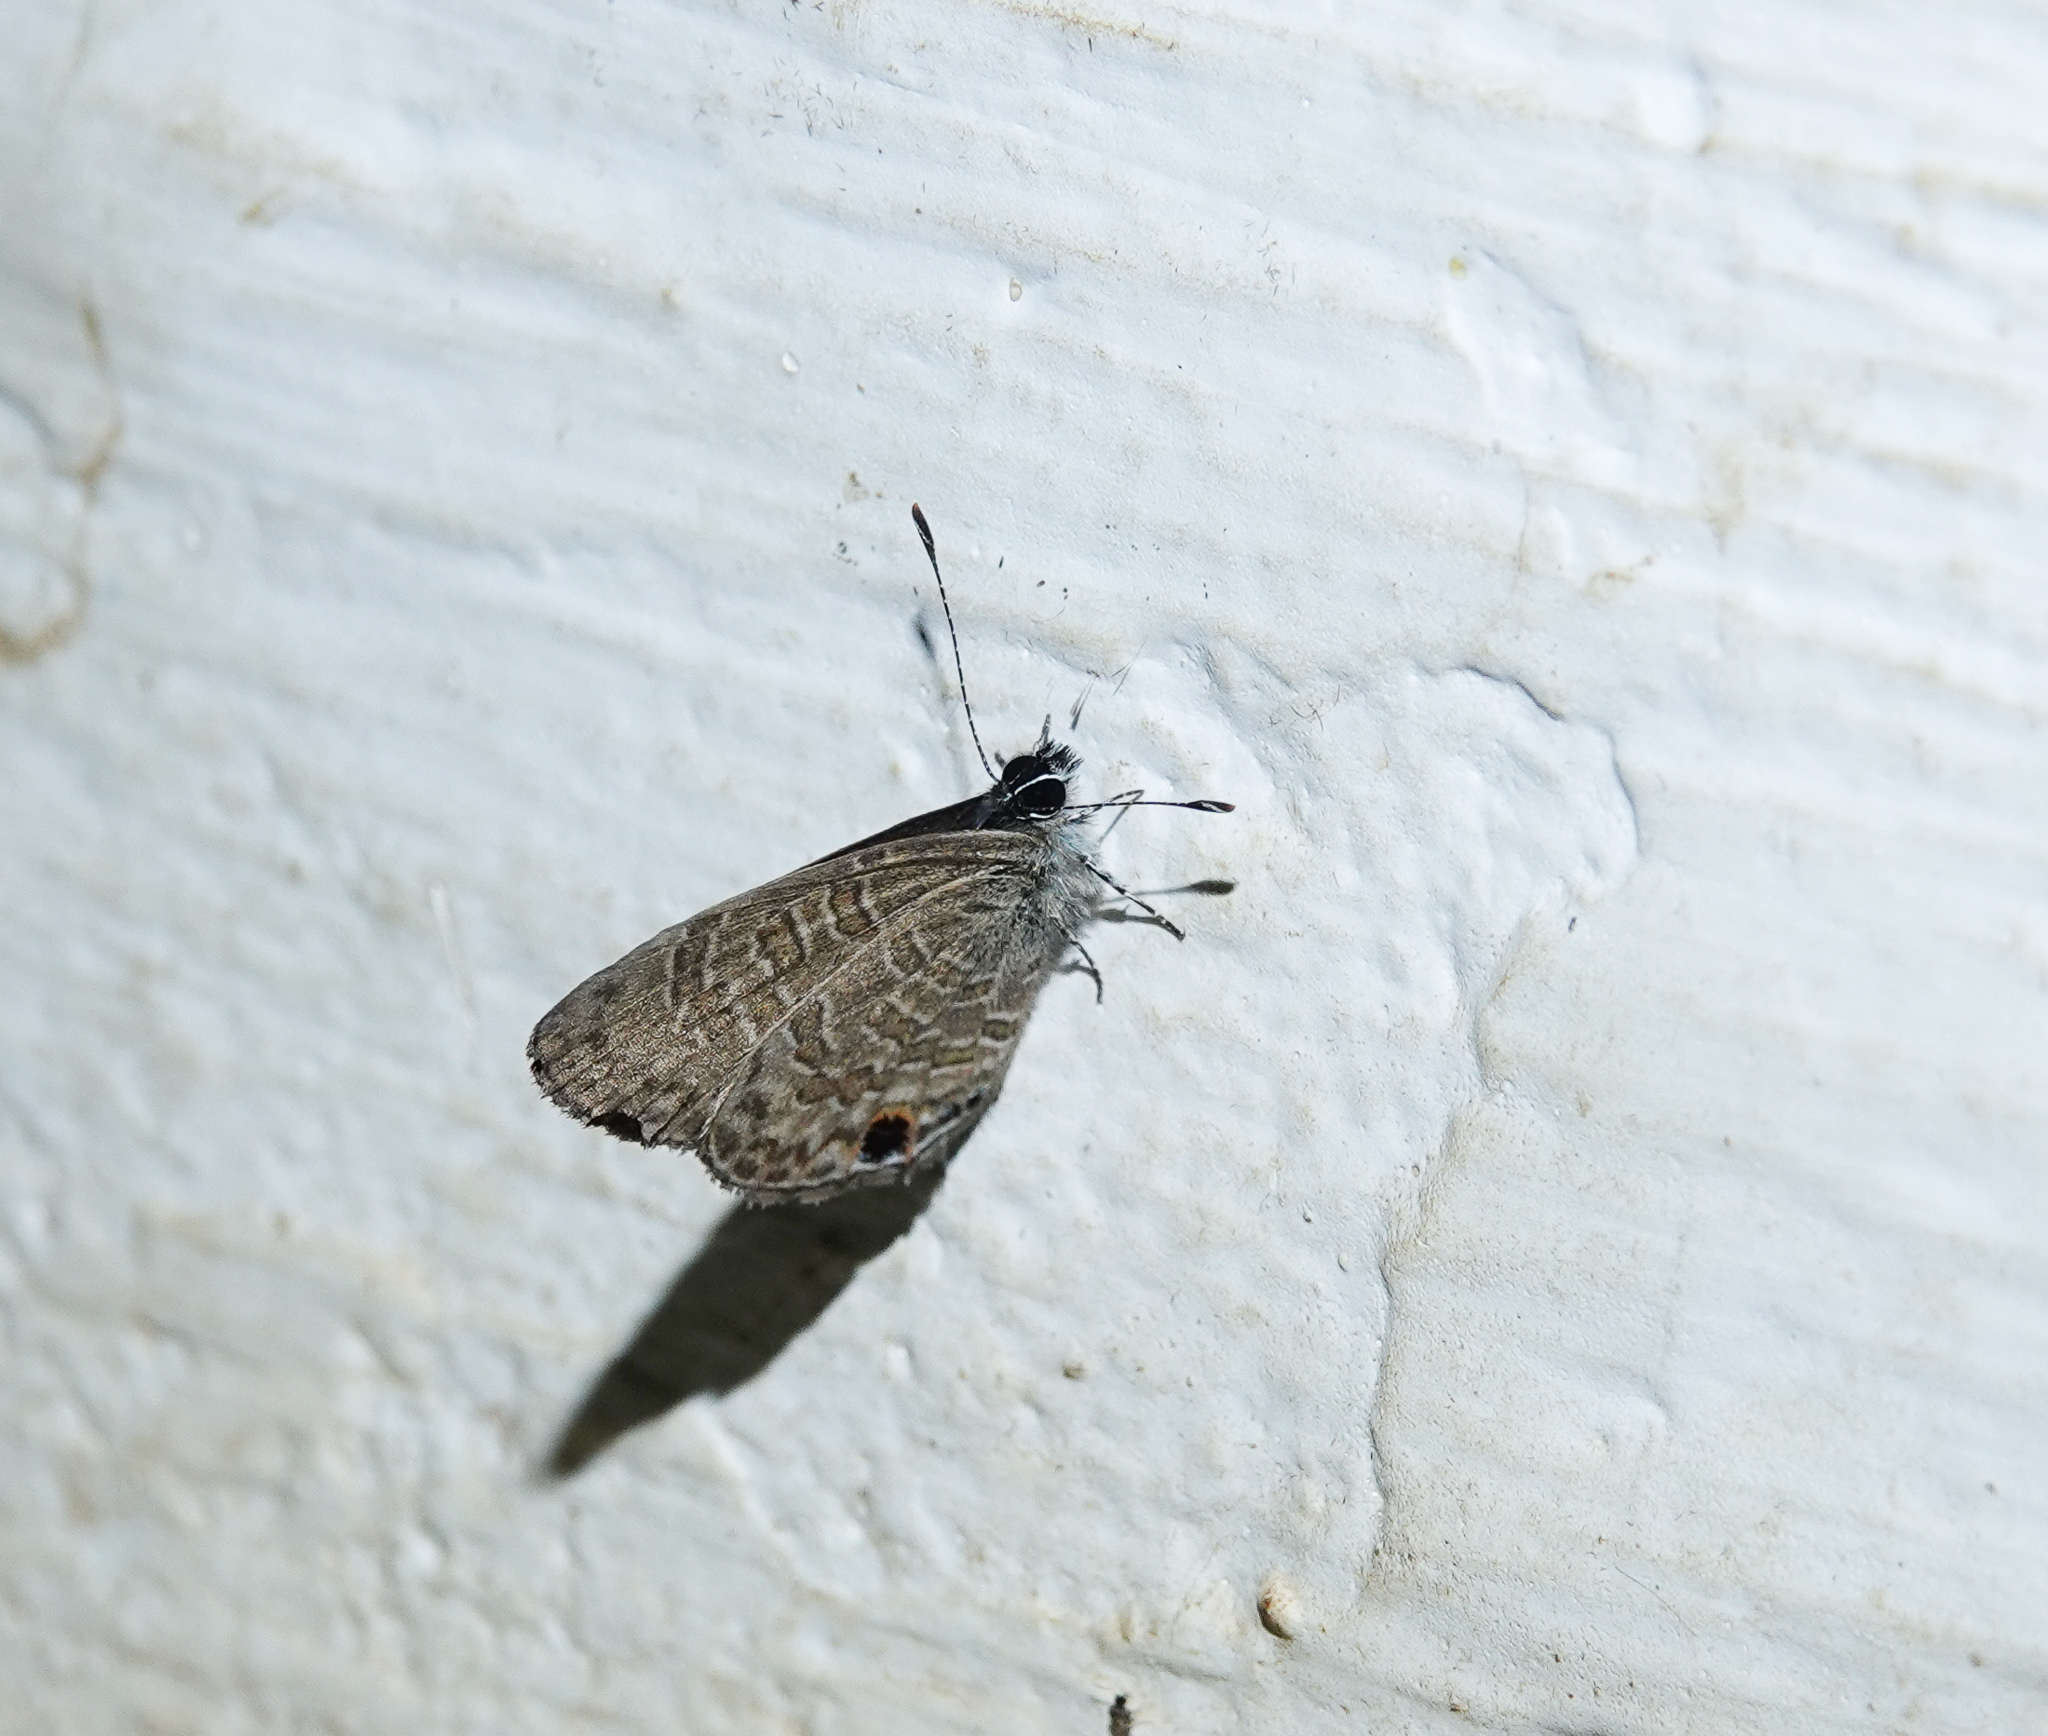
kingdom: Animalia
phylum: Arthropoda
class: Insecta
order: Lepidoptera
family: Lycaenidae
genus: Prosotas
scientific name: Prosotas nora
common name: Common line blue
